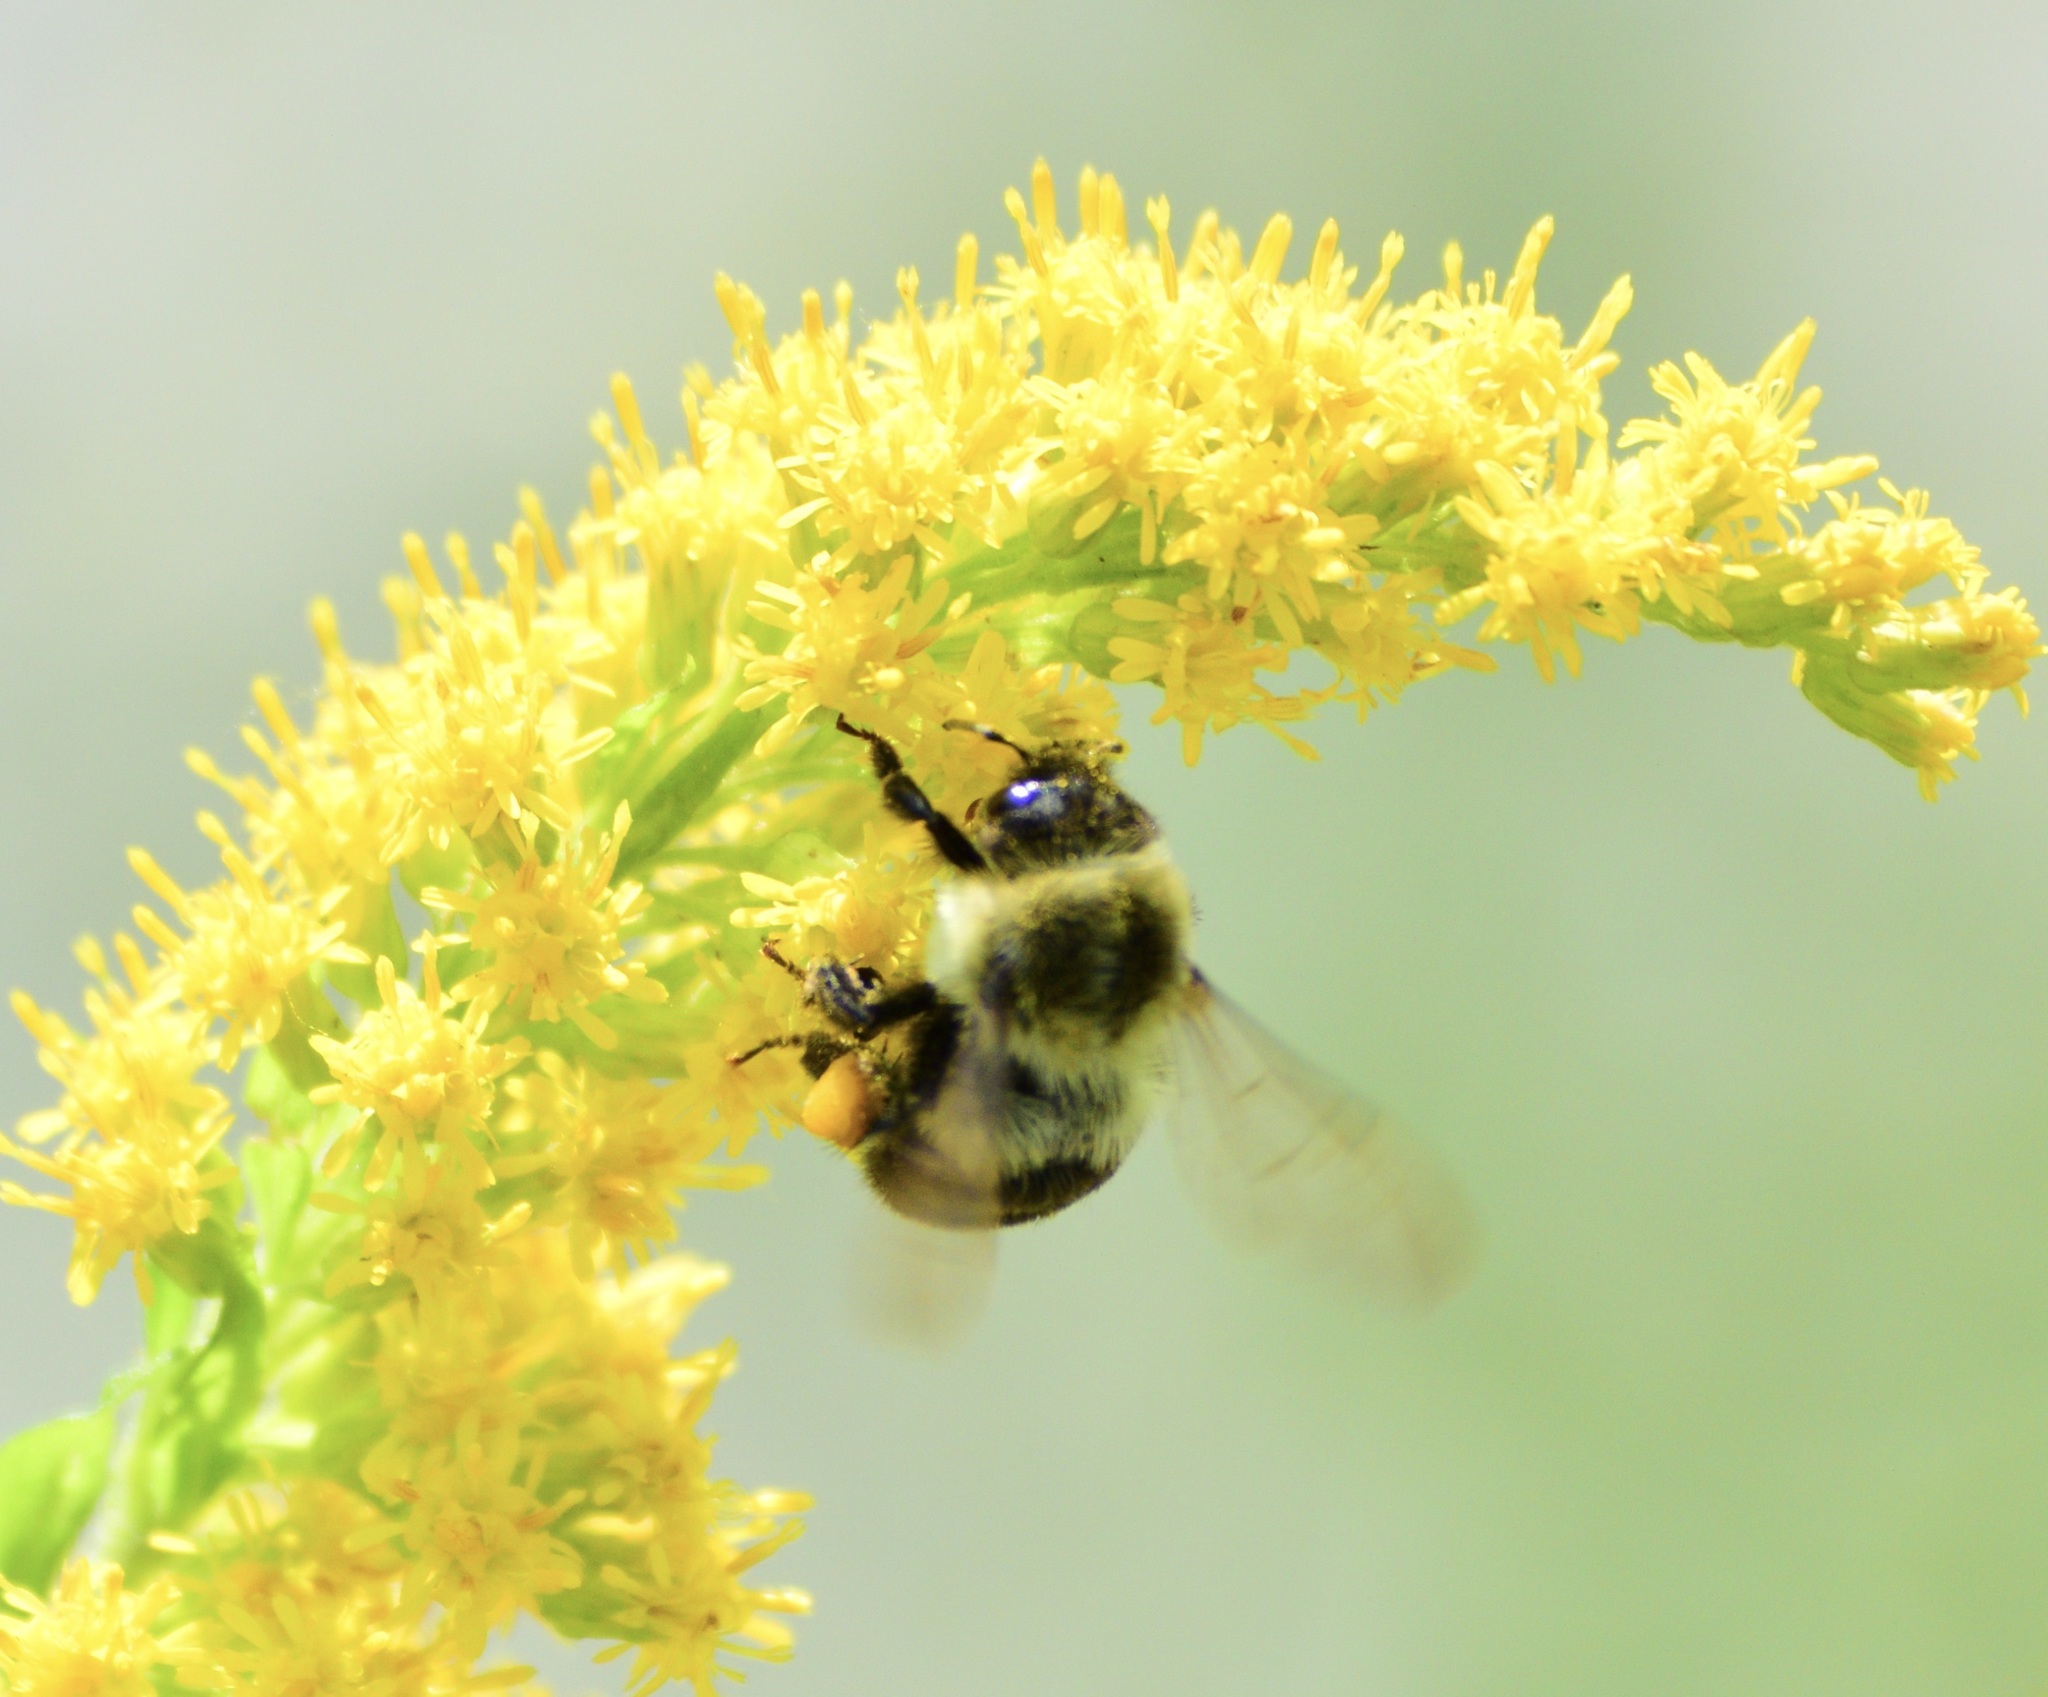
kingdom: Animalia
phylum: Arthropoda
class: Insecta
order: Hymenoptera
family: Apidae
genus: Bombus
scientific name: Bombus impatiens
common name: Common eastern bumble bee
